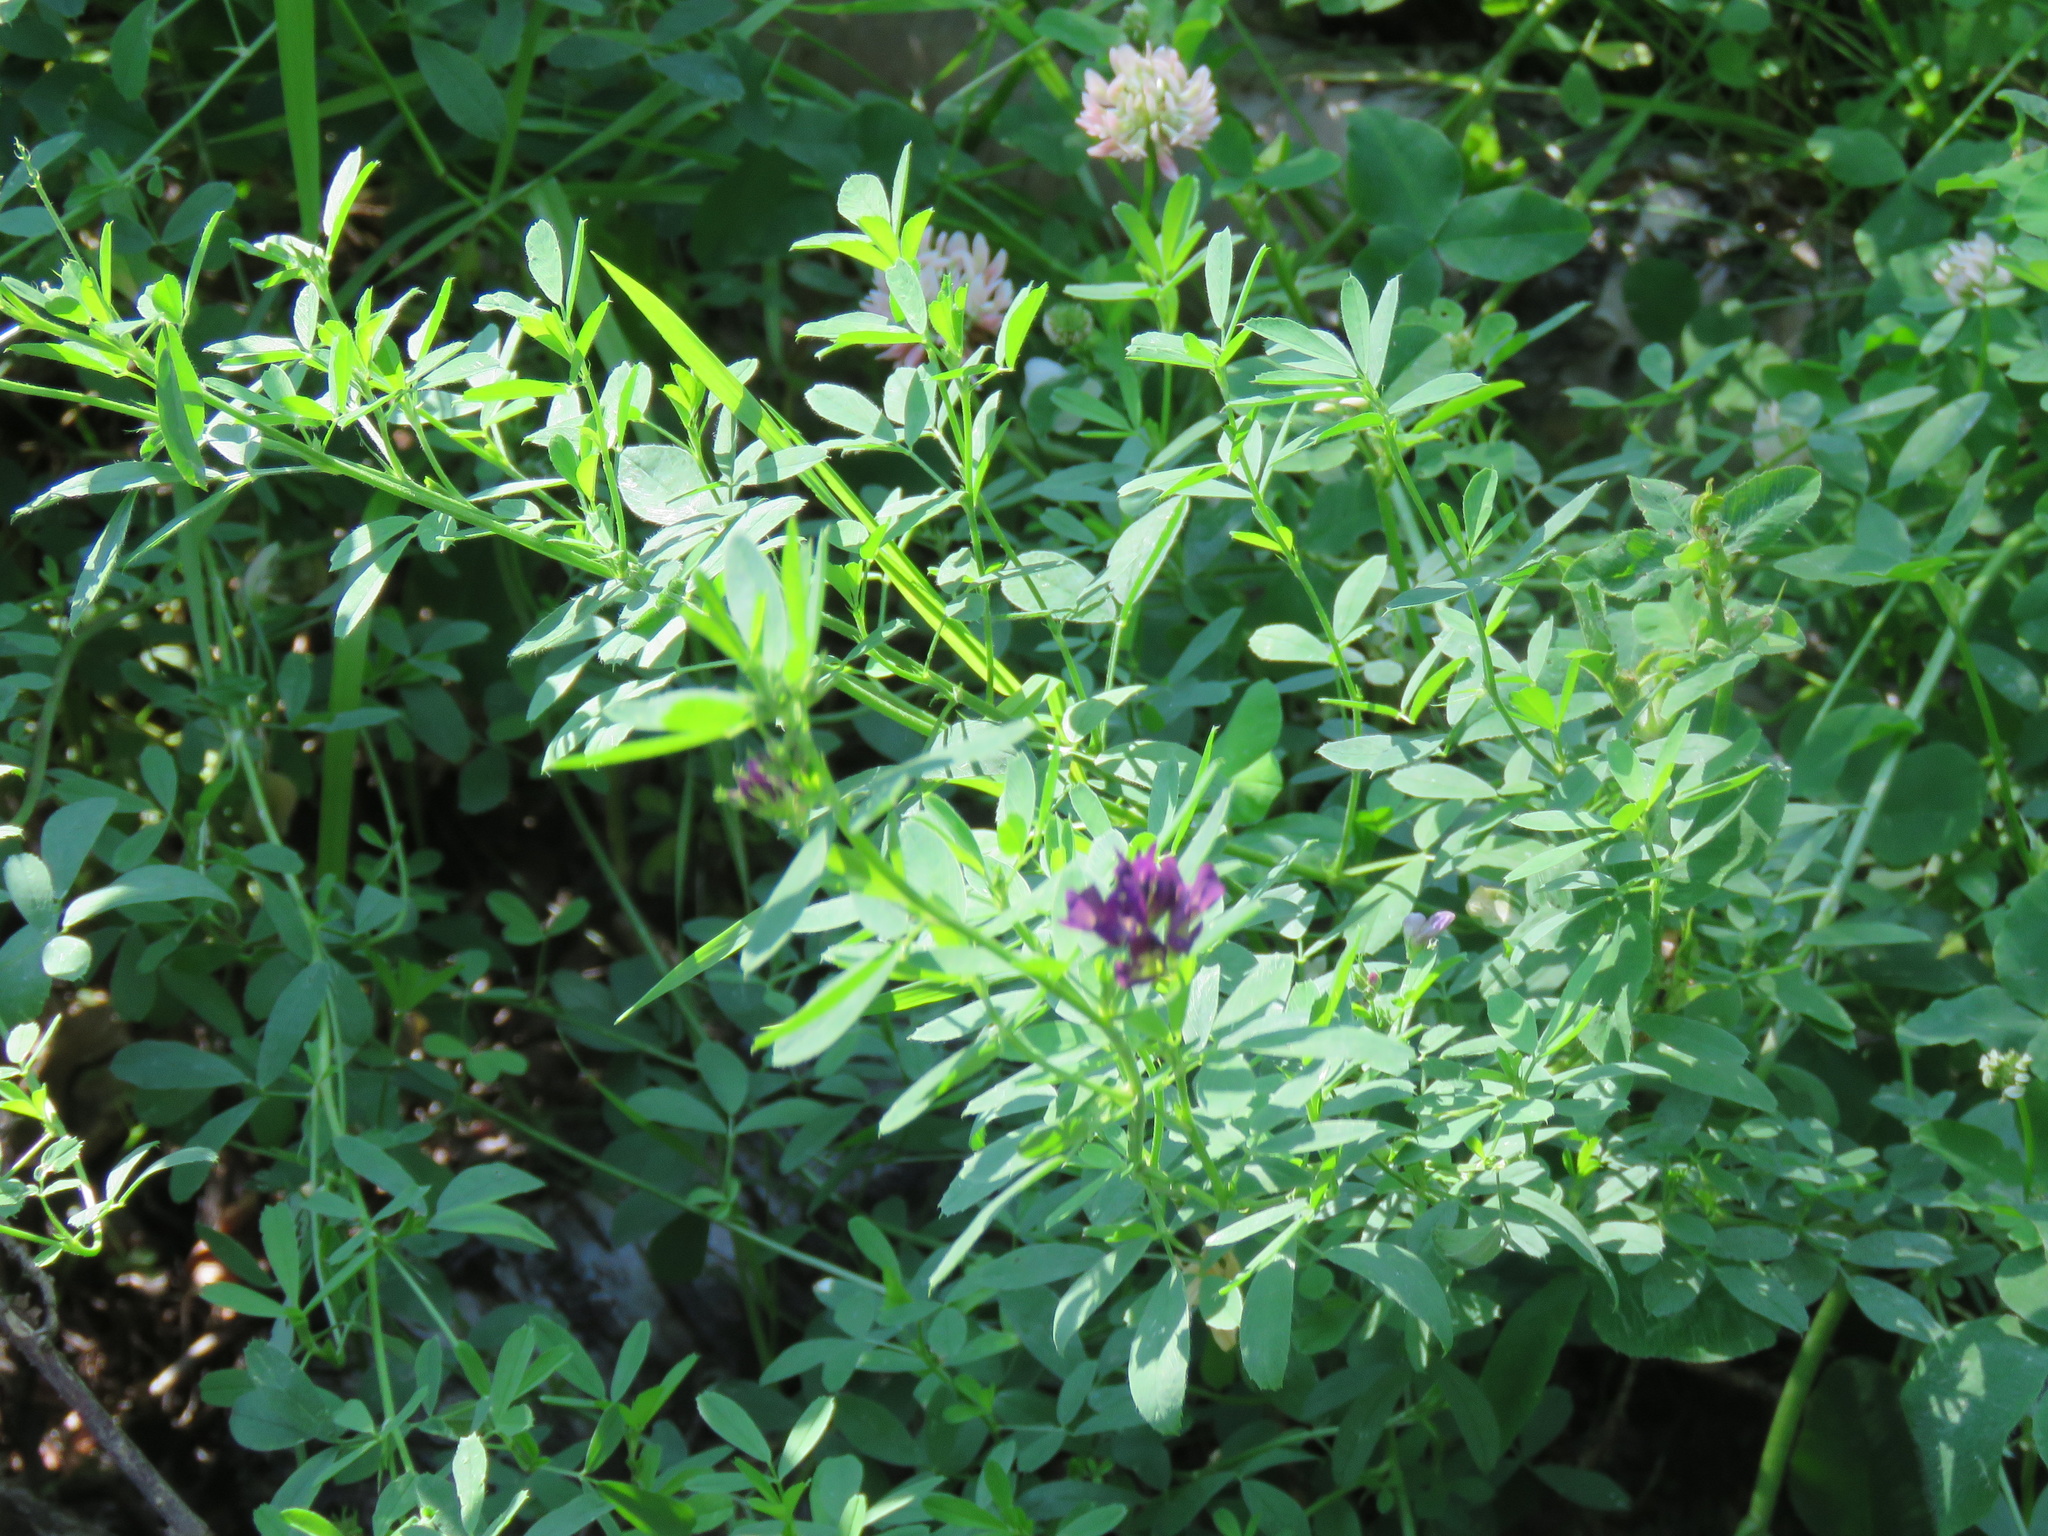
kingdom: Plantae
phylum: Tracheophyta
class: Magnoliopsida
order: Fabales
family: Fabaceae
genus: Medicago
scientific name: Medicago sativa
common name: Alfalfa
